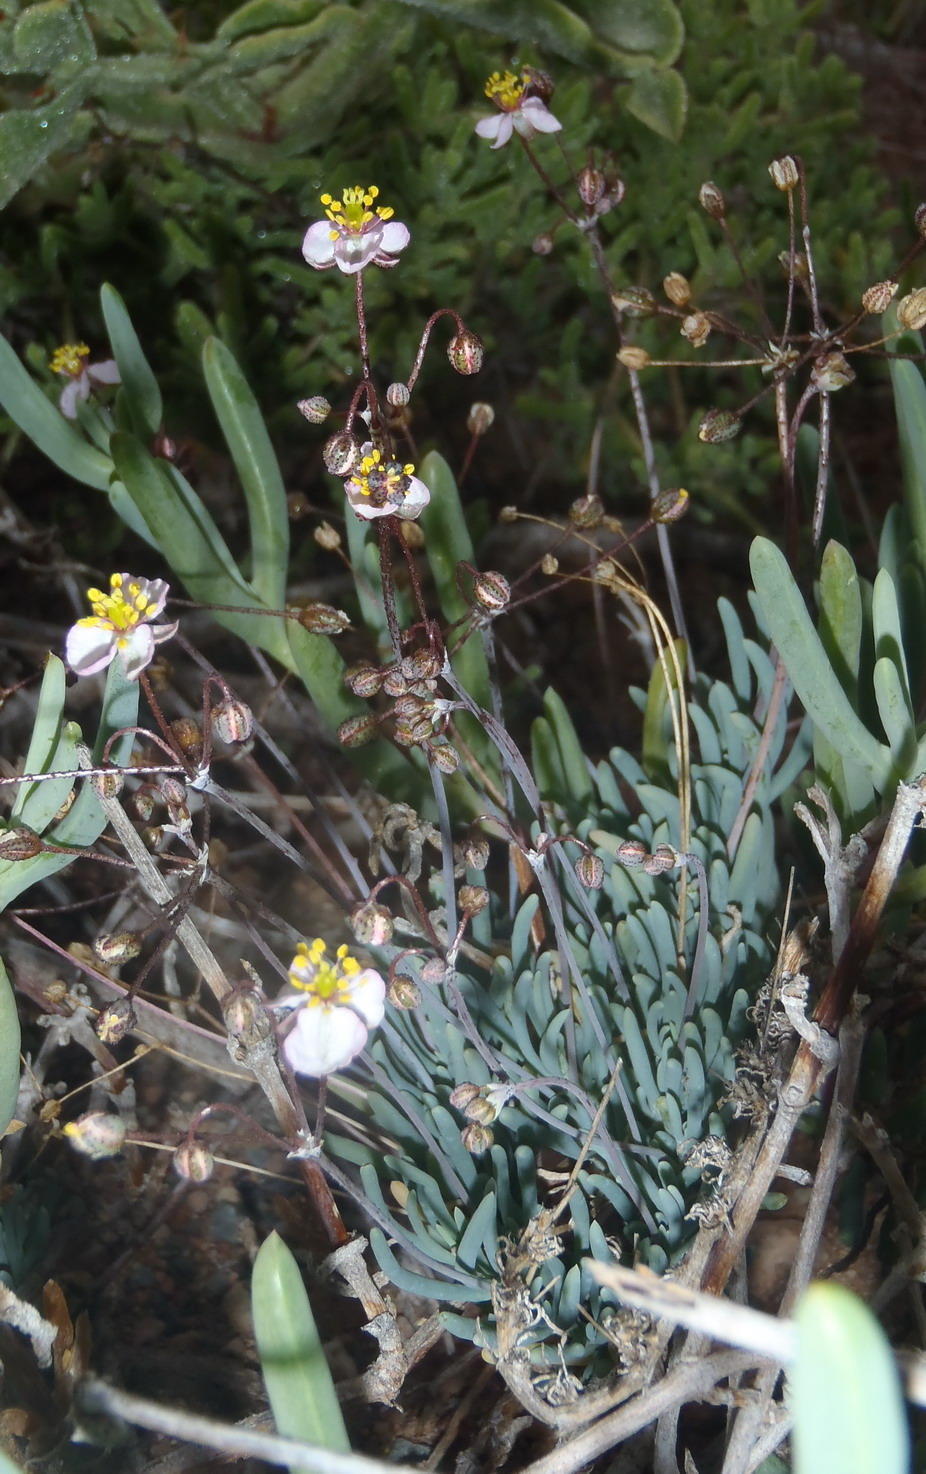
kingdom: Plantae
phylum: Tracheophyta
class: Magnoliopsida
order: Caryophyllales
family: Kewaceae
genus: Kewa
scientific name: Kewa salsoloides
